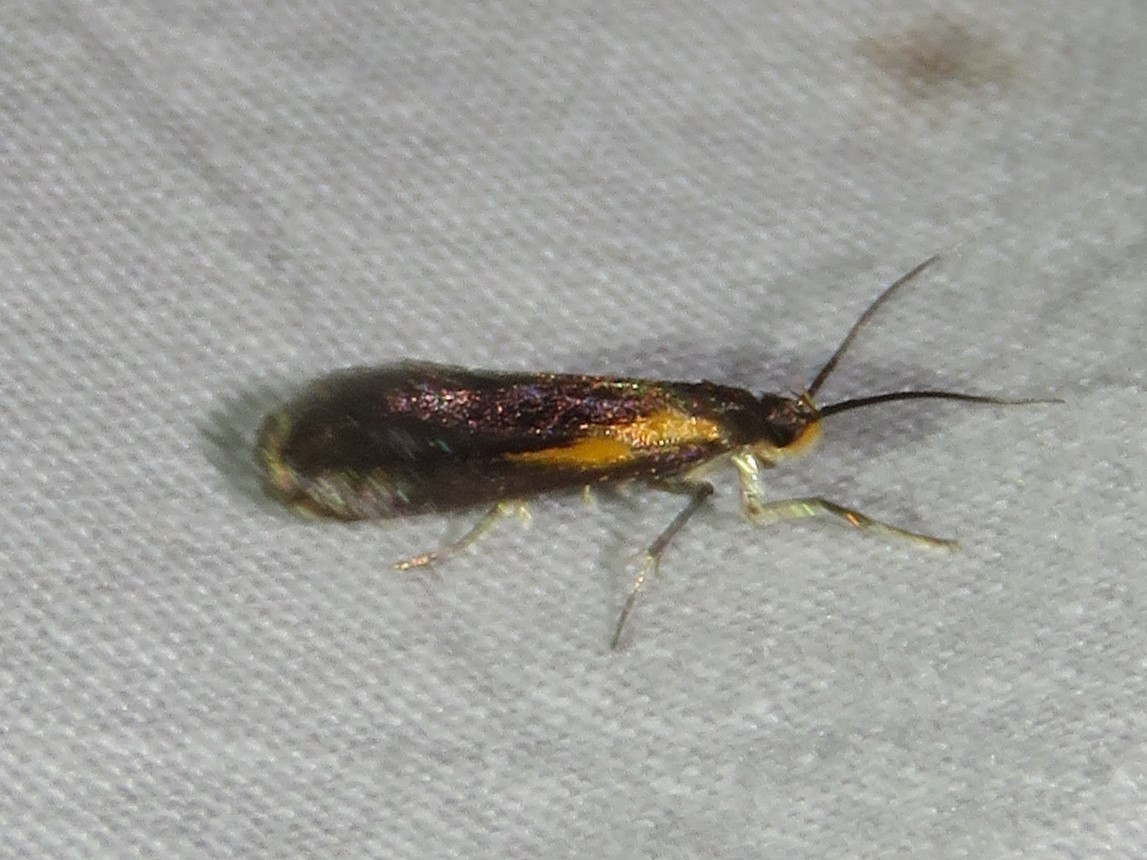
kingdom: Animalia
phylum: Arthropoda
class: Insecta
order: Lepidoptera
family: Oecophoridae
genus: Mathildana
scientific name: Mathildana newmanella
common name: Newman's mathildana moth
